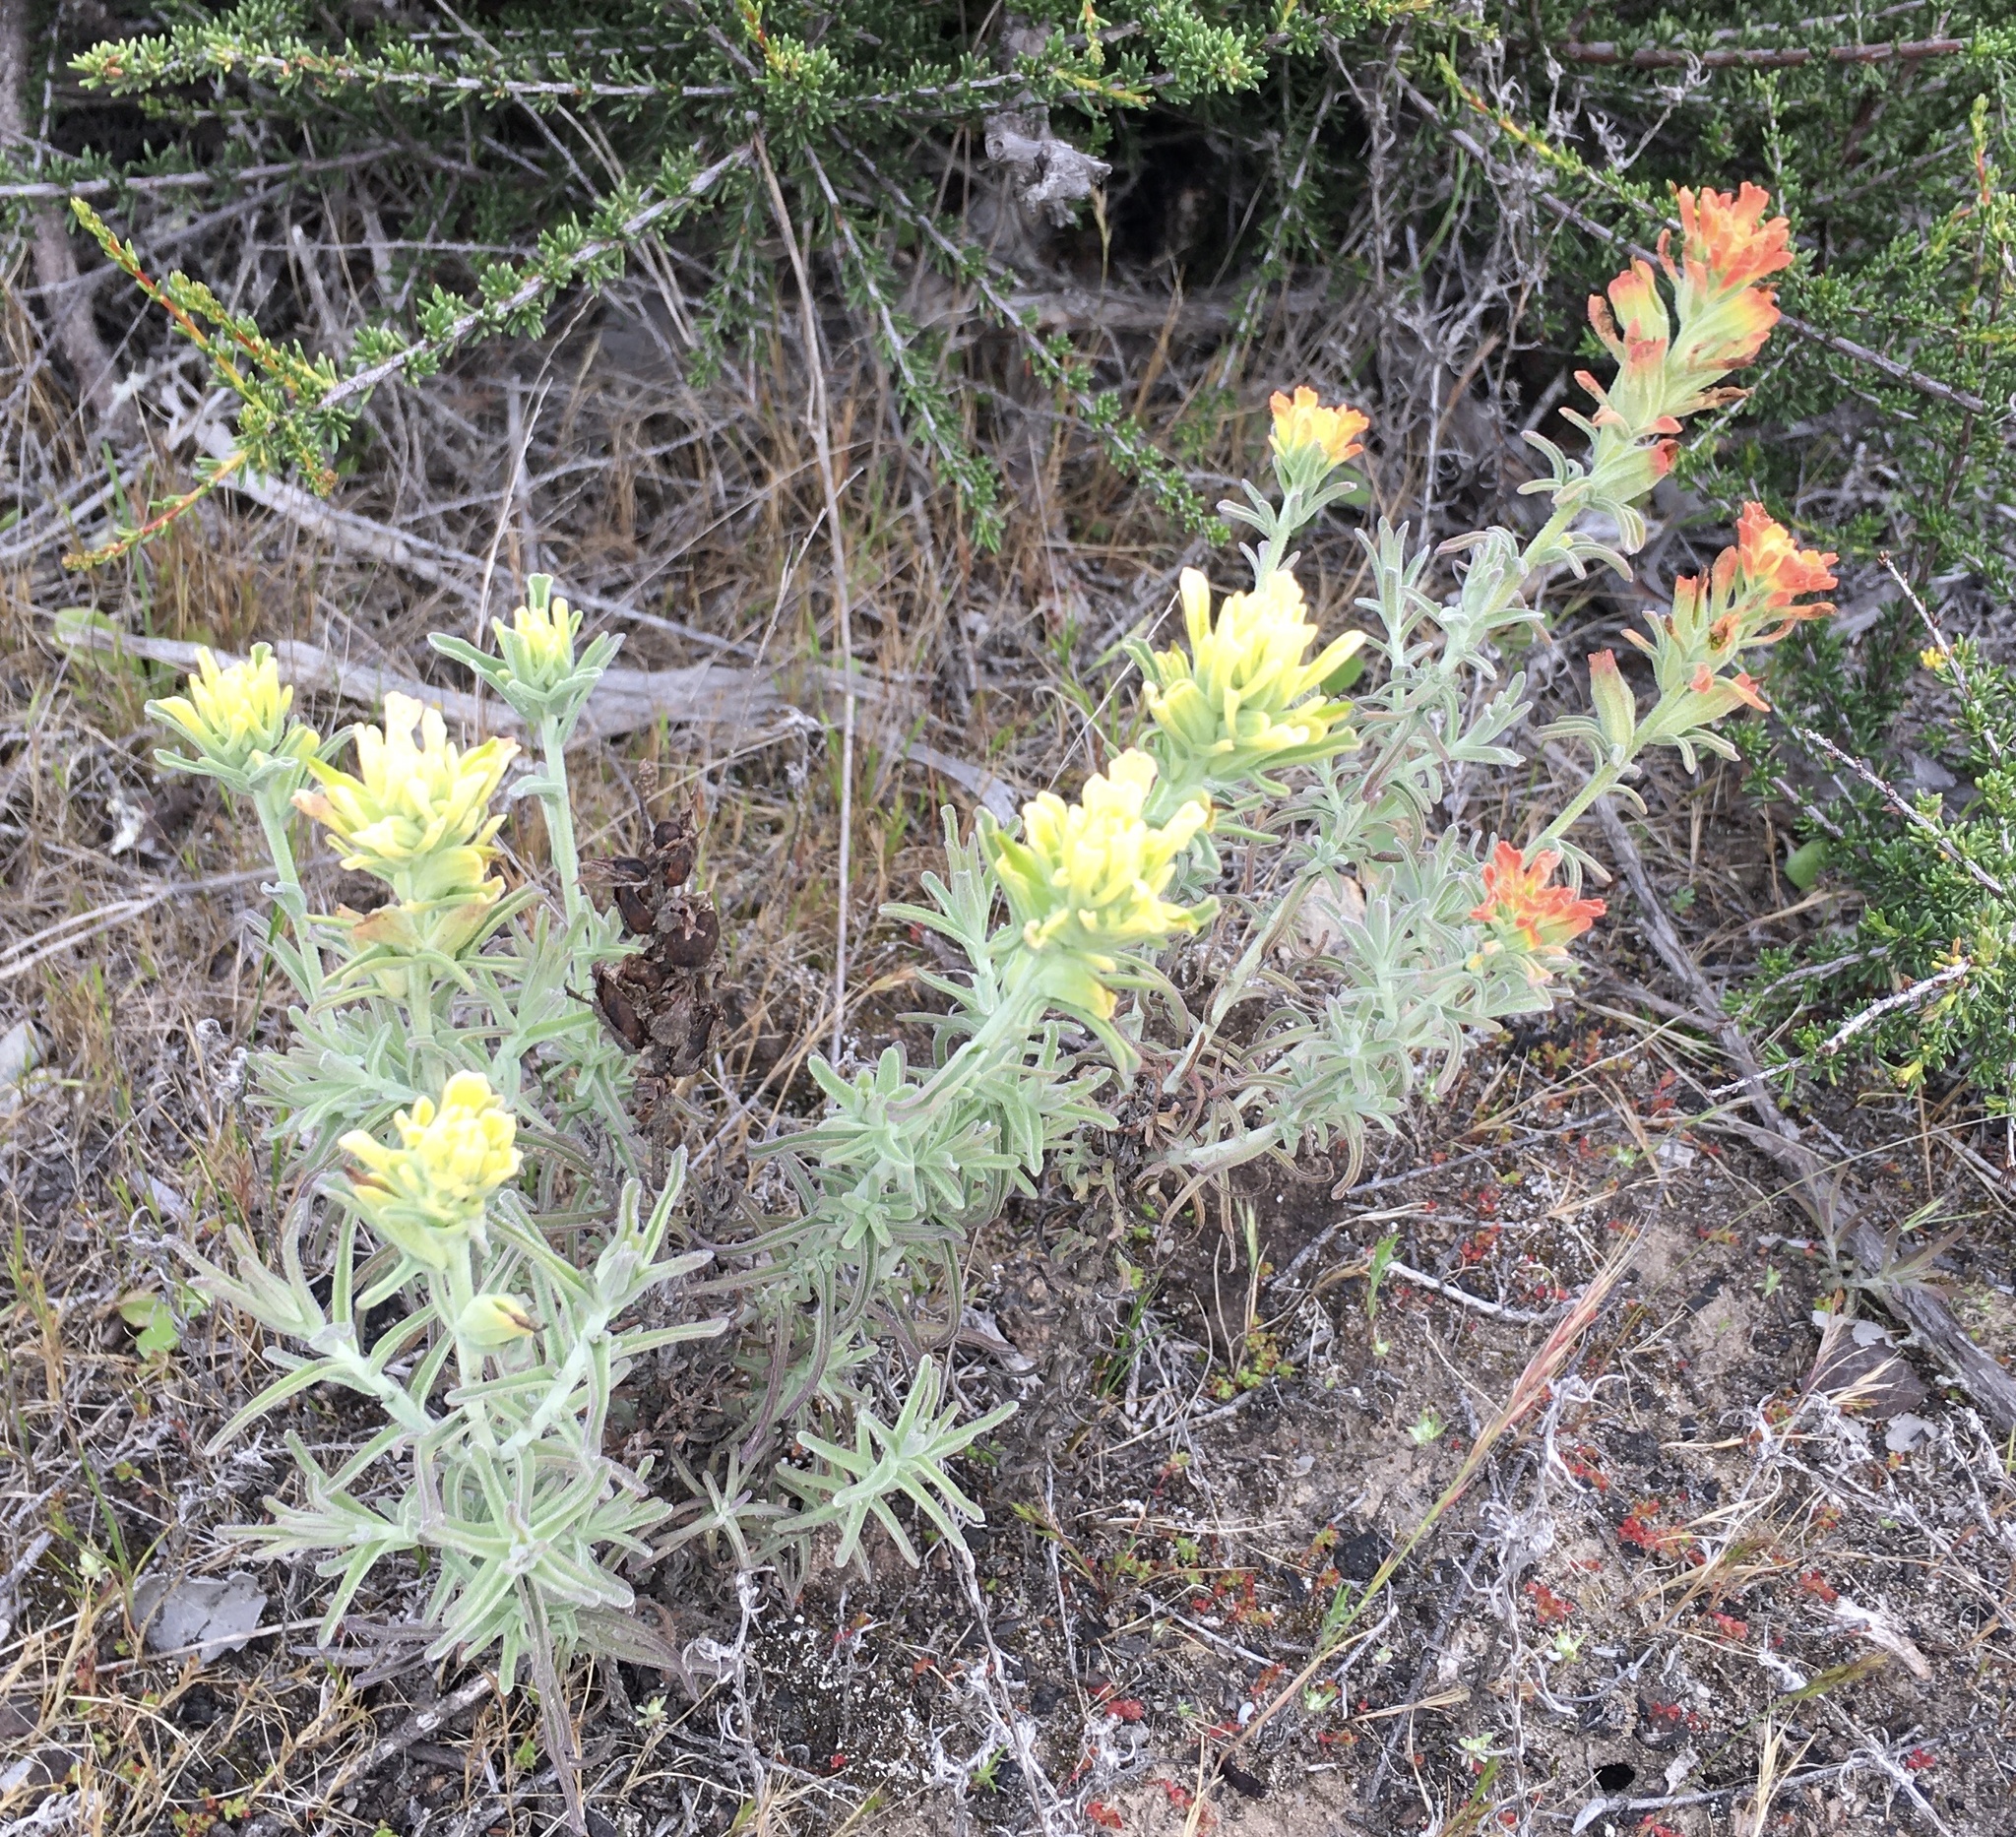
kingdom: Plantae
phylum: Tracheophyta
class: Magnoliopsida
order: Lamiales
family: Orobanchaceae
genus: Castilleja
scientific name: Castilleja foliolosa
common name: Woolly indian paintbrush
